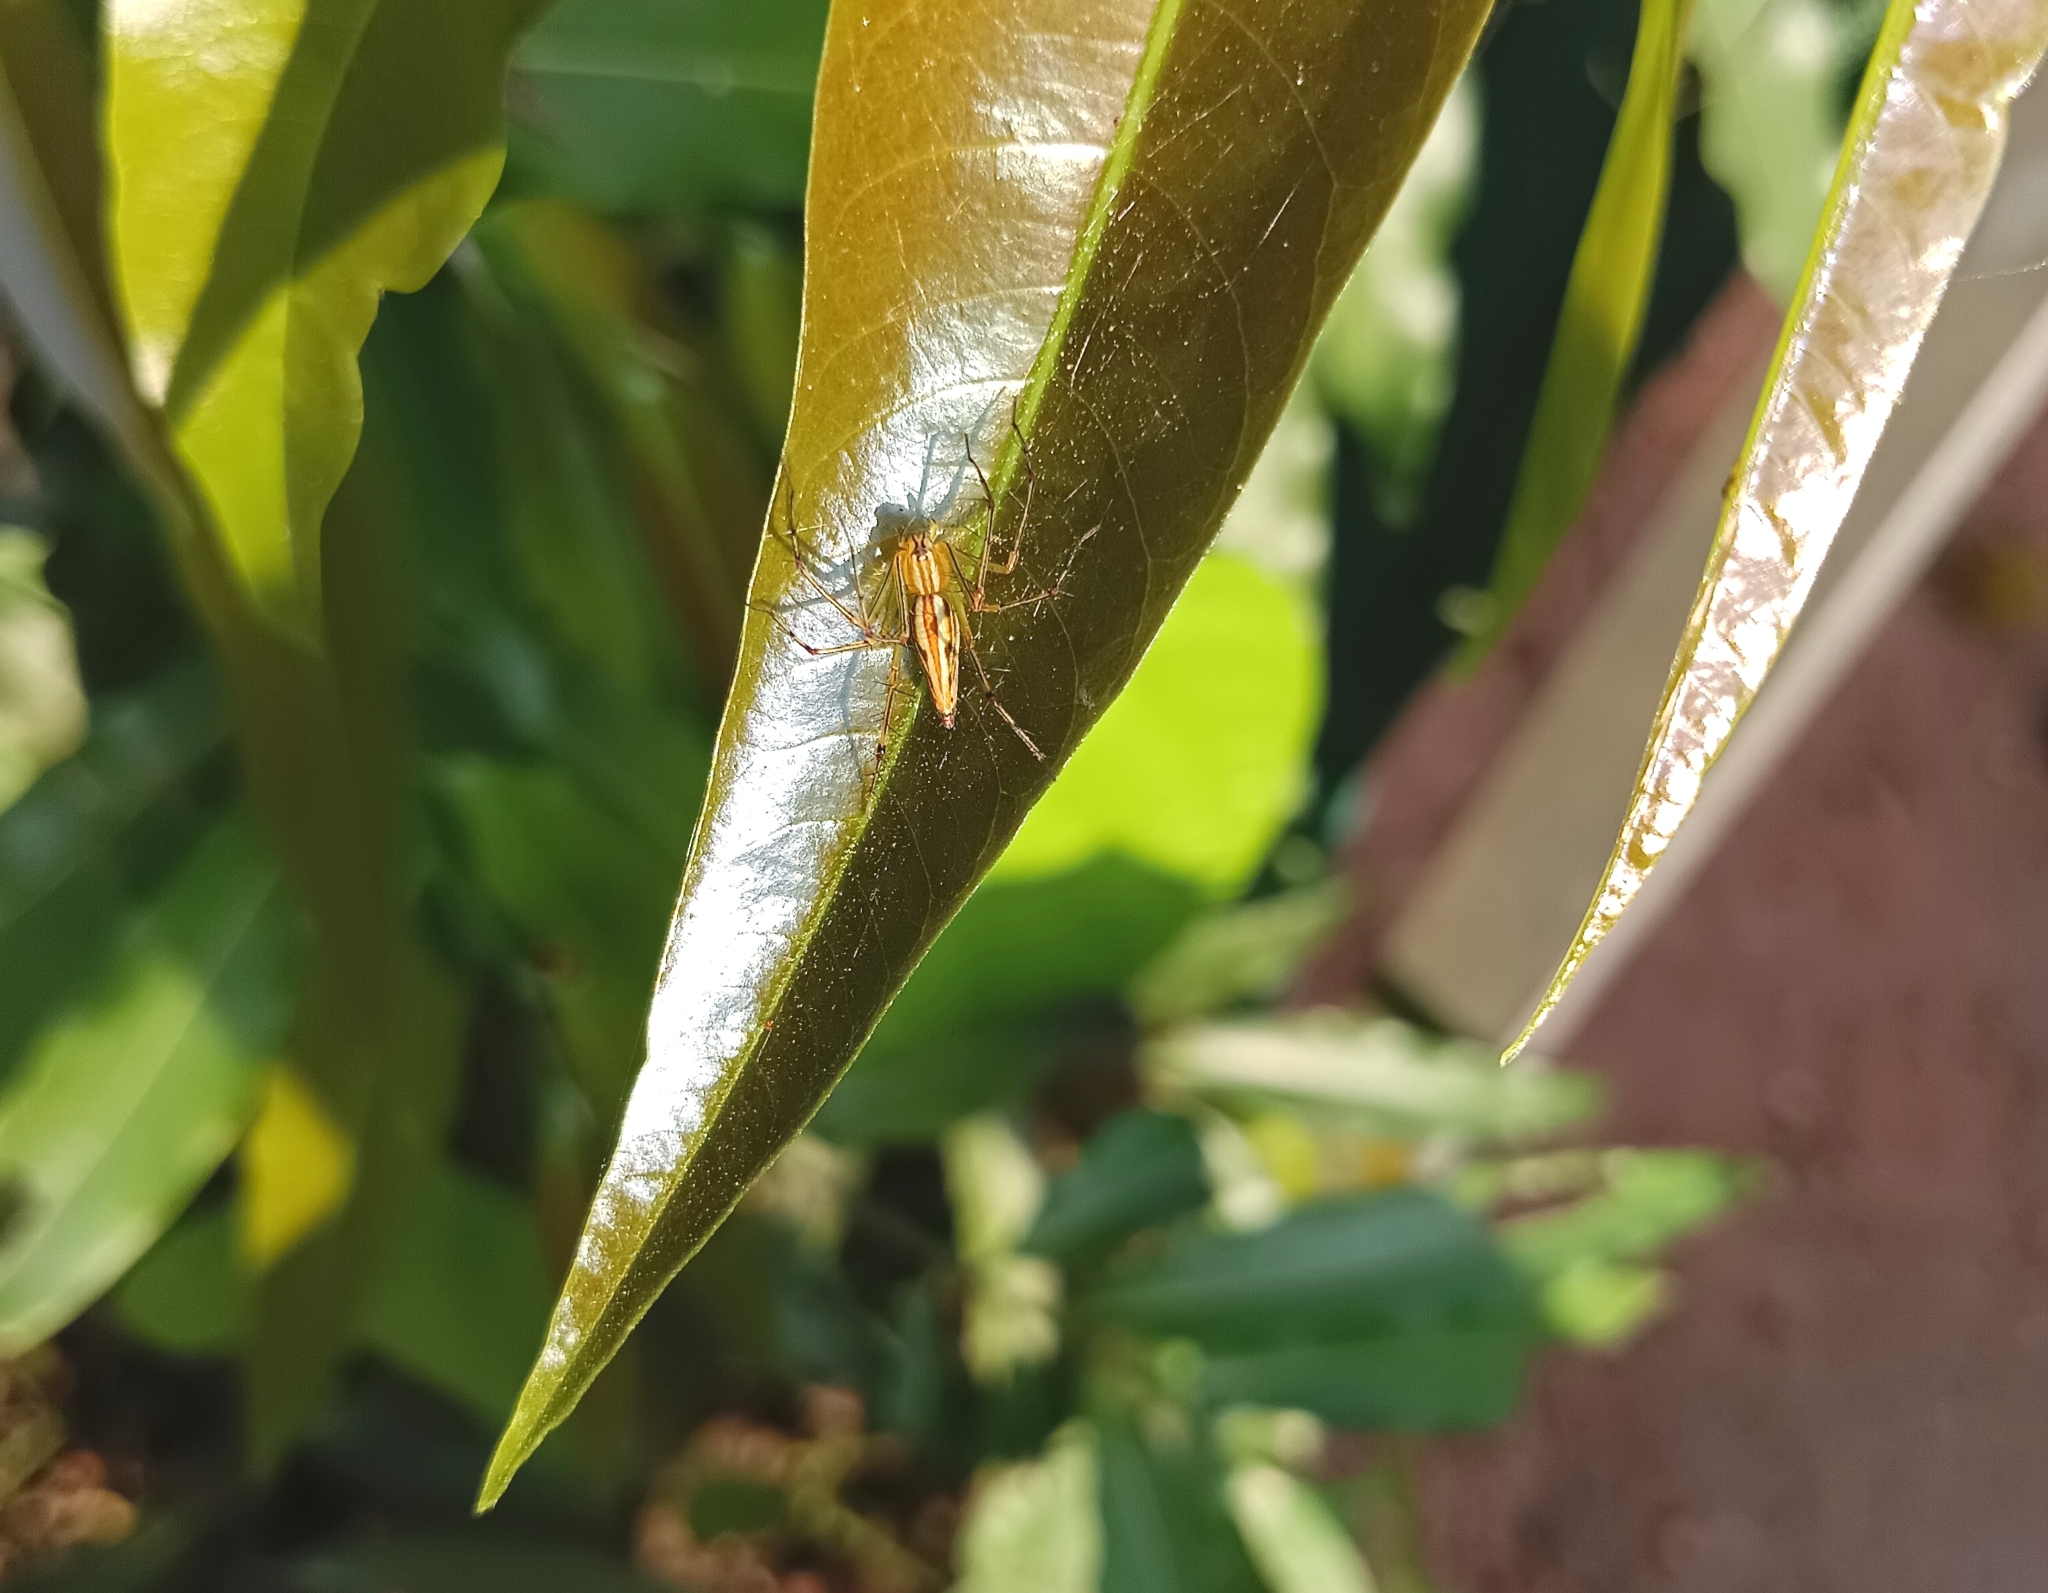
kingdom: Animalia
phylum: Arthropoda
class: Arachnida
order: Araneae
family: Oxyopidae
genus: Oxyopes
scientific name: Oxyopes macilentus
